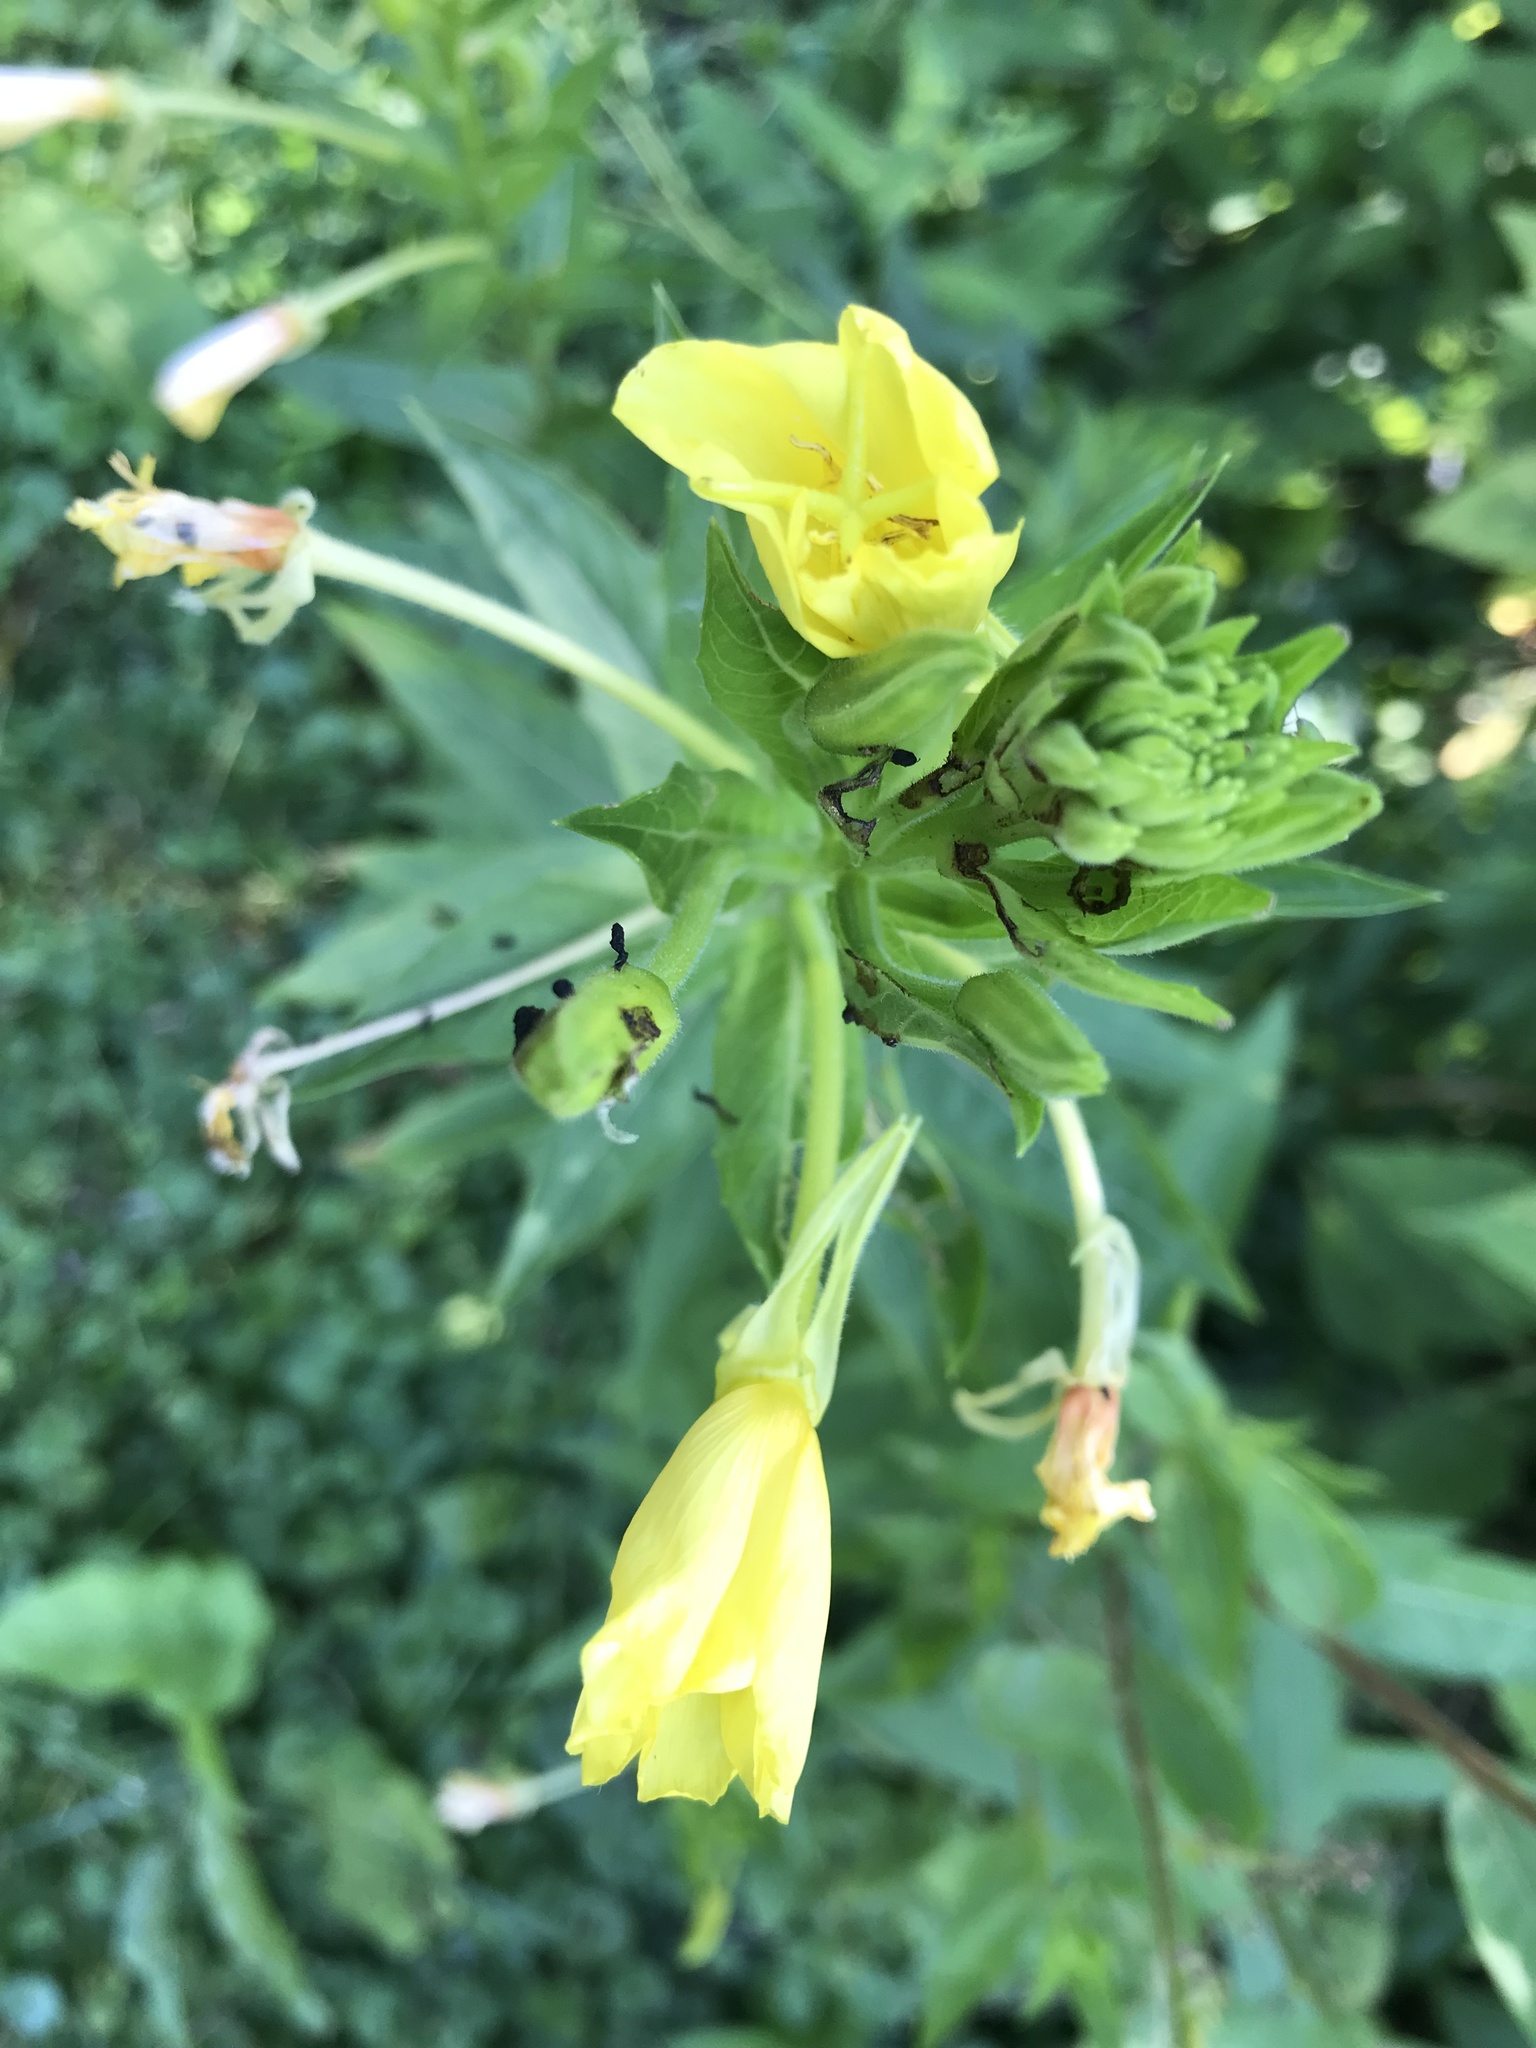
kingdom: Plantae
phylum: Tracheophyta
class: Magnoliopsida
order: Myrtales
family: Onagraceae
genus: Oenothera
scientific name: Oenothera biennis
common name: Common evening-primrose
